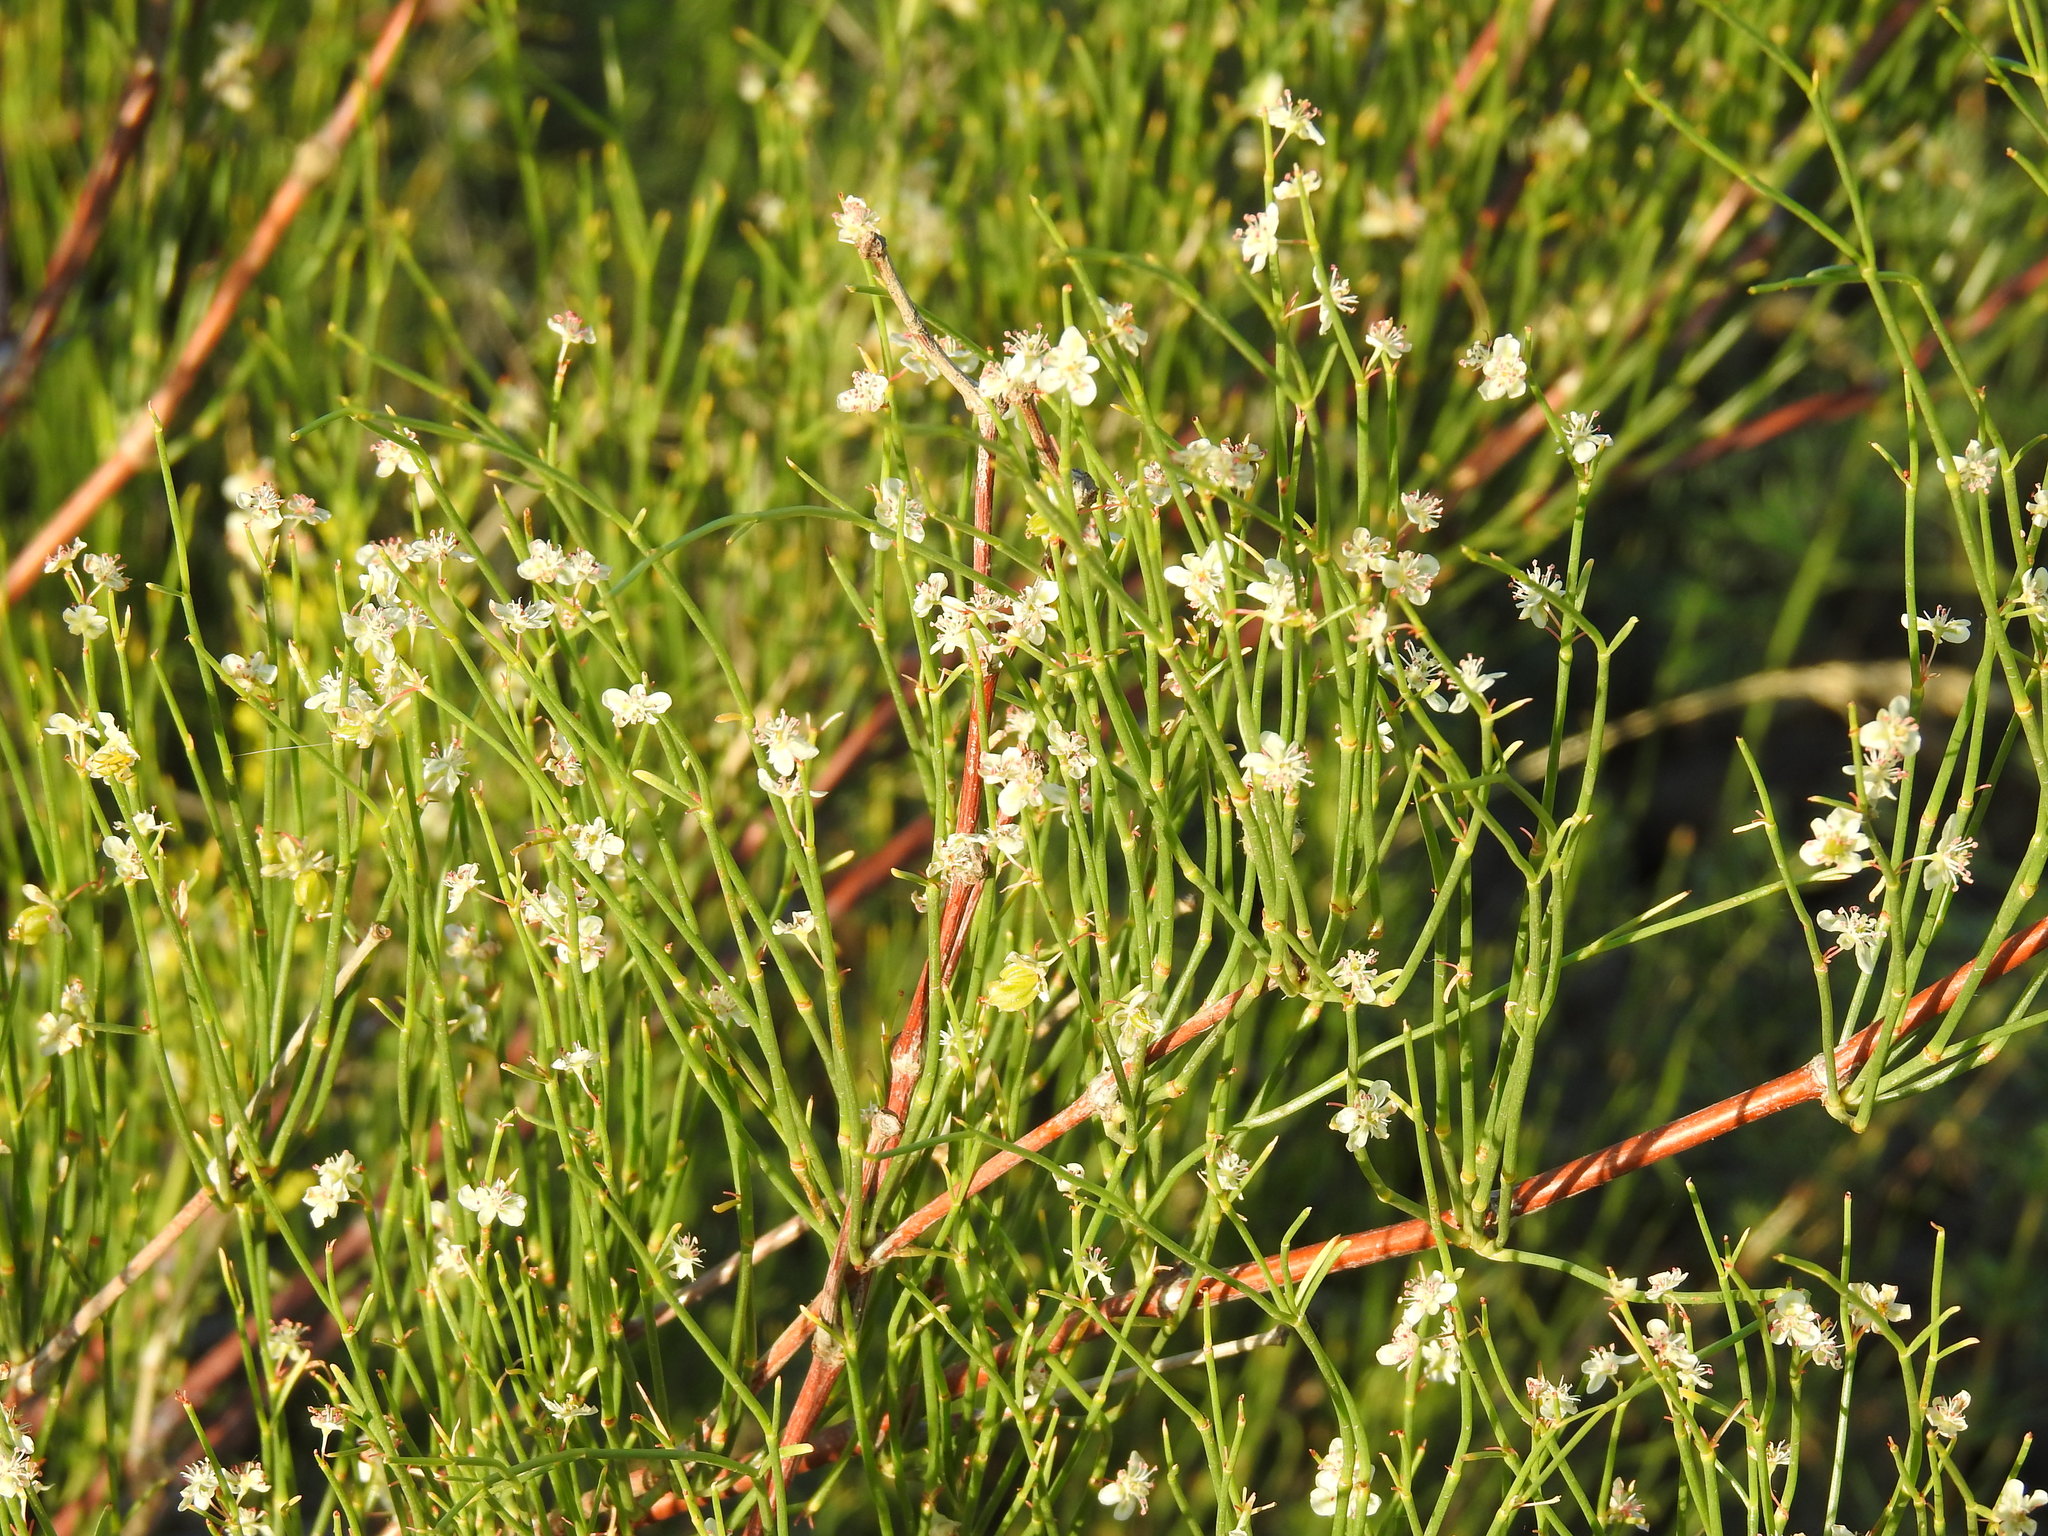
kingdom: Plantae
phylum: Tracheophyta
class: Magnoliopsida
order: Caryophyllales
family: Polygonaceae
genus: Calligonum
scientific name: Calligonum aphyllum
